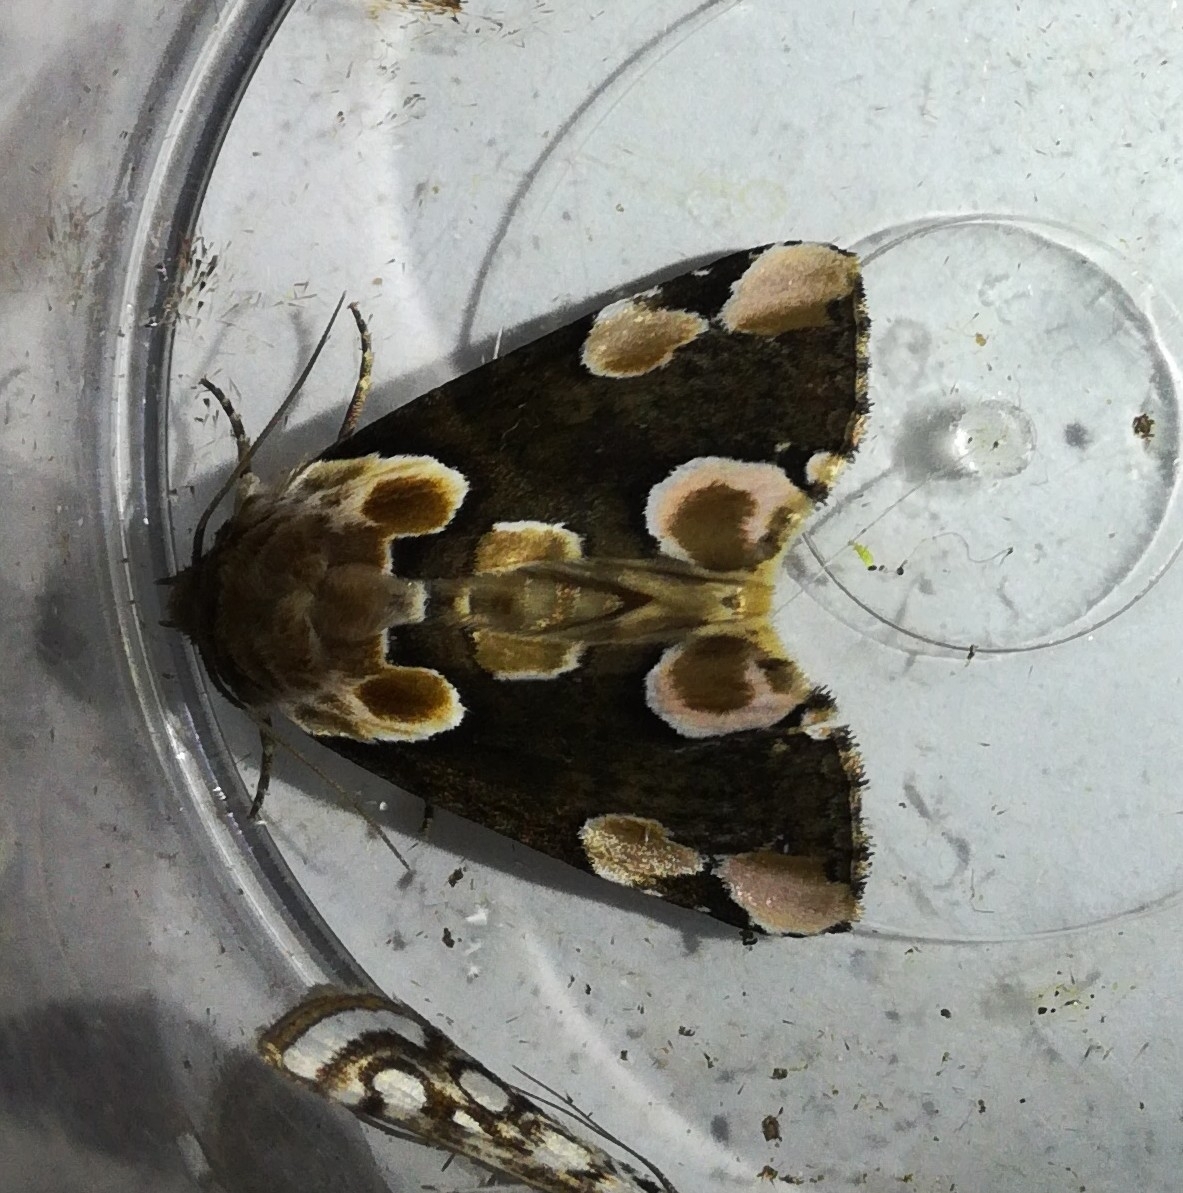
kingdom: Animalia
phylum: Arthropoda
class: Insecta
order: Lepidoptera
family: Drepanidae
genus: Thyatira
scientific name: Thyatira batis
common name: Peach blossom
